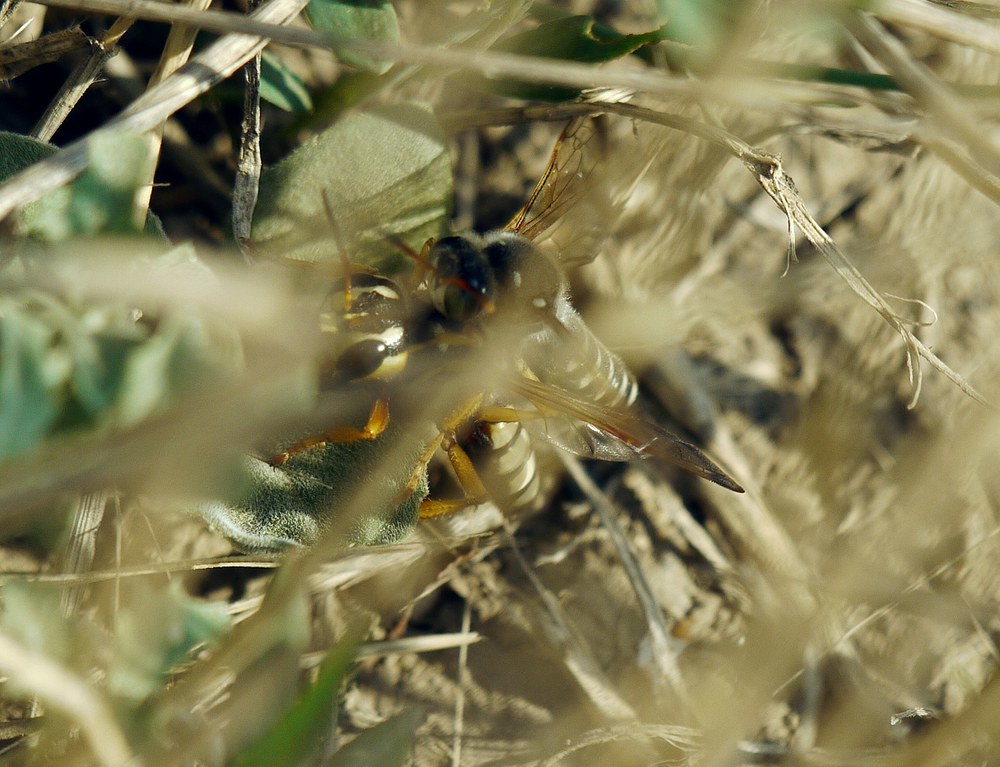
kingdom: Animalia
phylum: Arthropoda
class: Insecta
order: Hymenoptera
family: Crabronidae
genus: Cerceris
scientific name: Cerceris tuberculata
